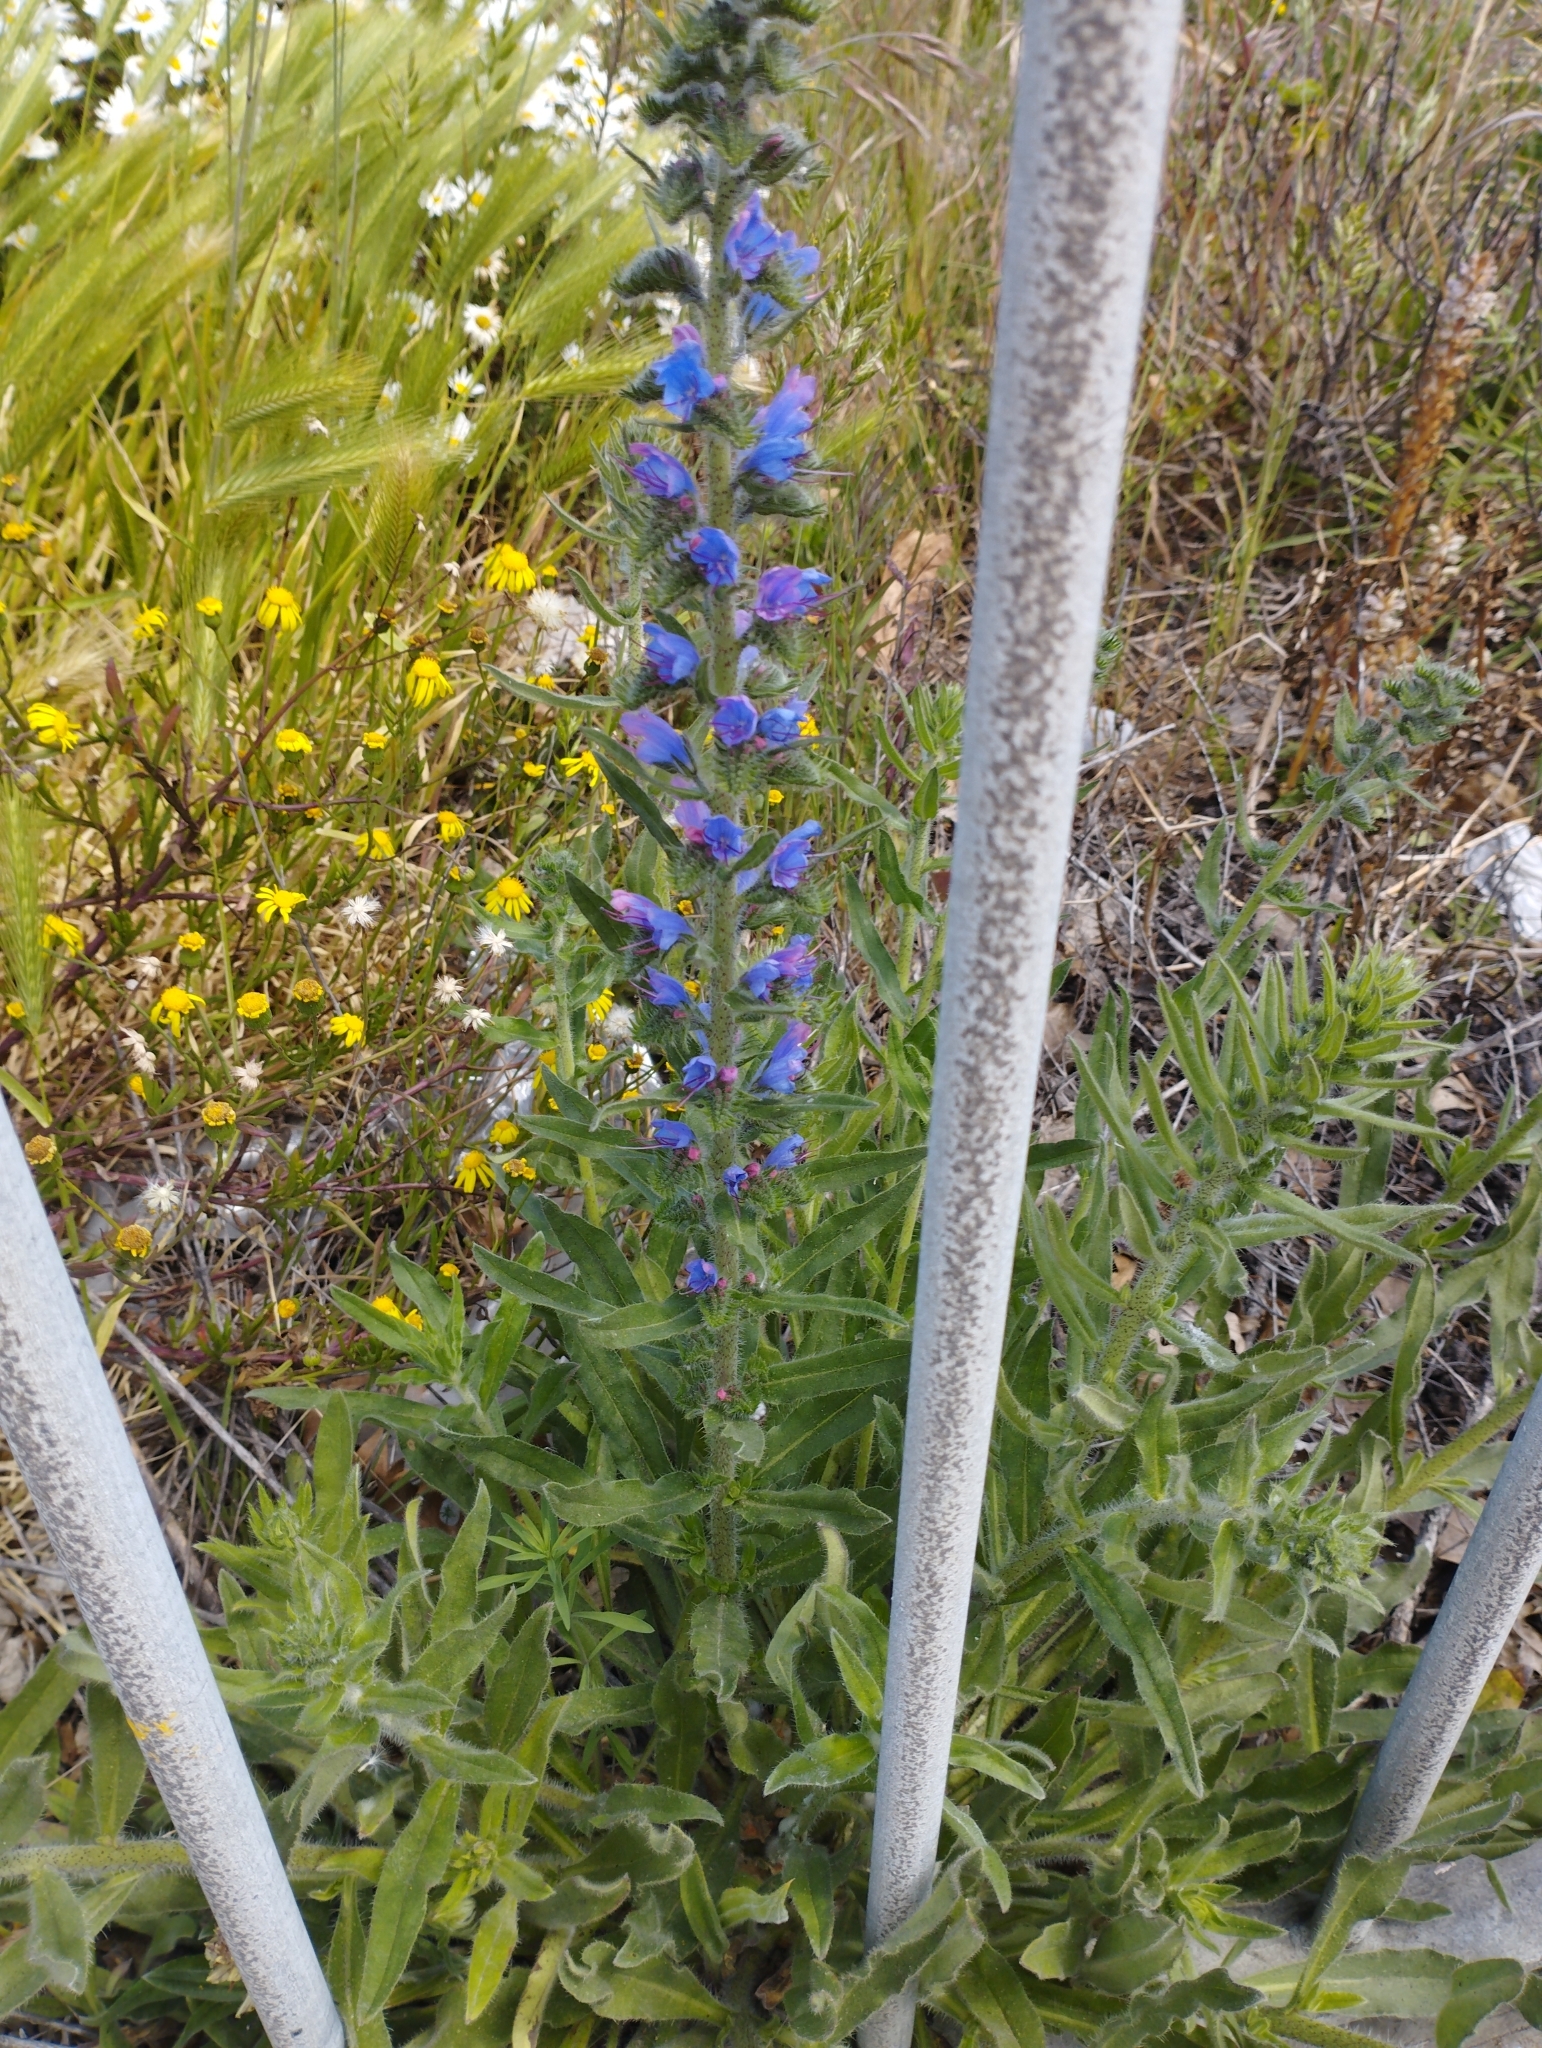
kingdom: Plantae
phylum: Tracheophyta
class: Magnoliopsida
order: Boraginales
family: Boraginaceae
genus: Echium
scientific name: Echium vulgare
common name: Common viper's bugloss
